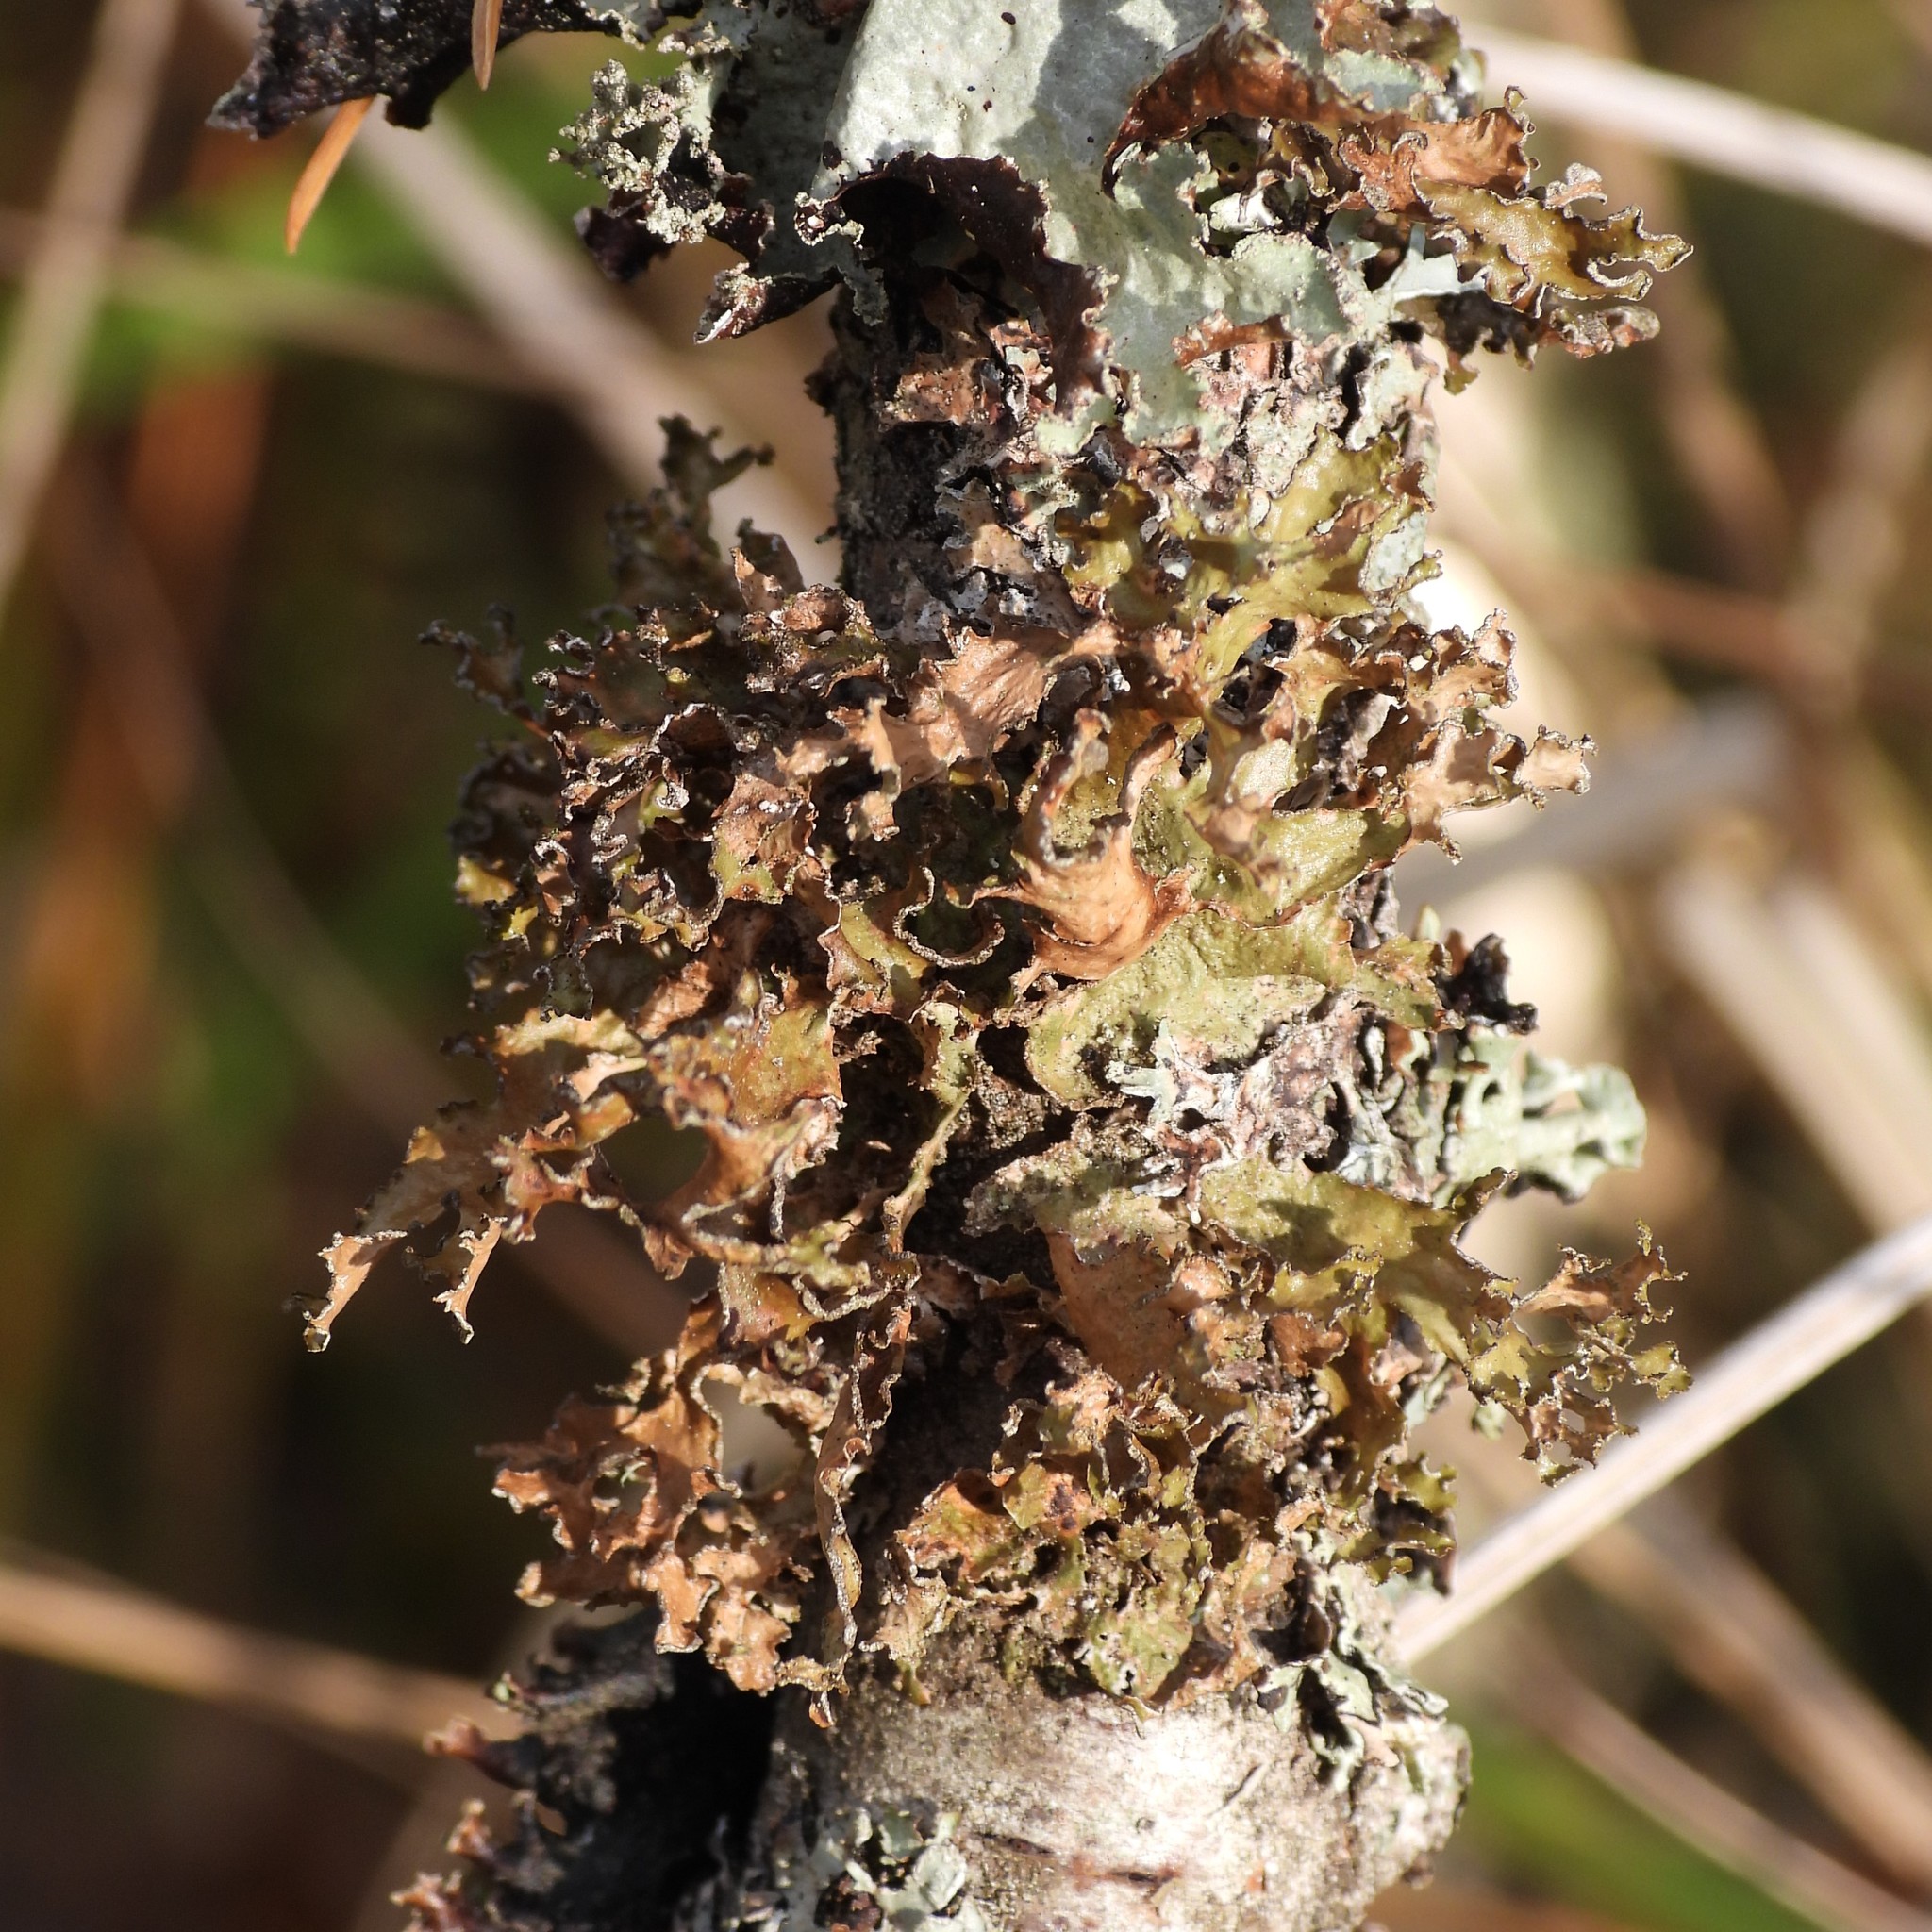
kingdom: Fungi
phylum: Ascomycota
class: Lecanoromycetes
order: Lecanorales
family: Parmeliaceae
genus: Nephromopsis
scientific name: Nephromopsis chlorophylla
